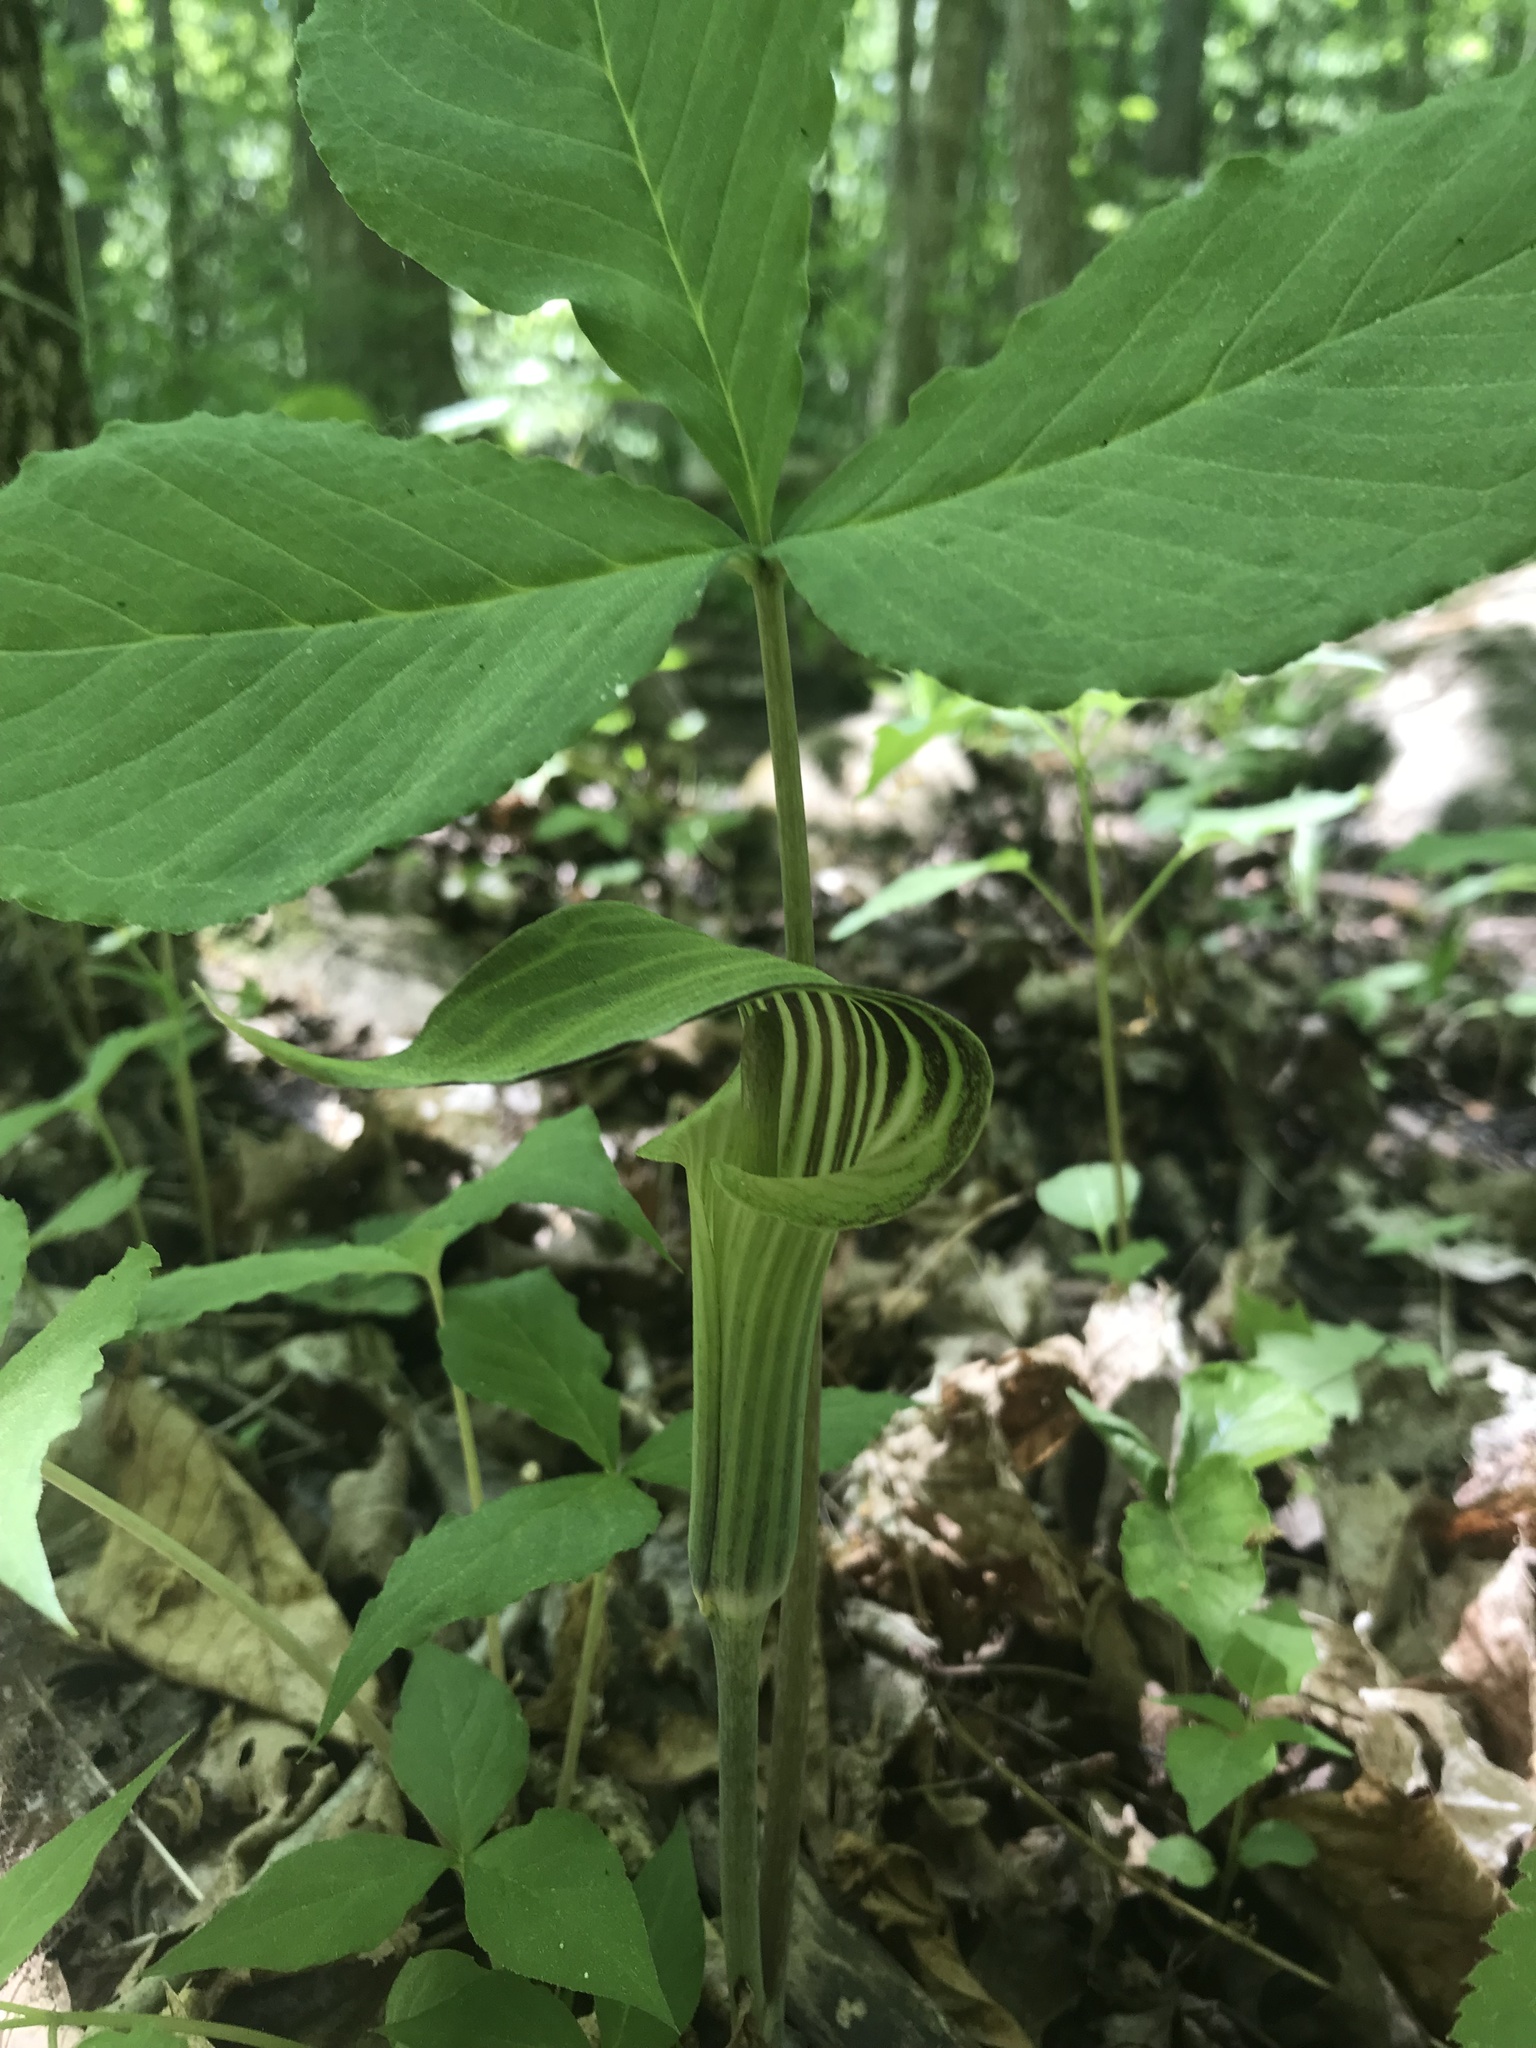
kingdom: Plantae
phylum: Tracheophyta
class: Liliopsida
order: Alismatales
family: Araceae
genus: Arisaema
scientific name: Arisaema triphyllum
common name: Jack-in-the-pulpit
